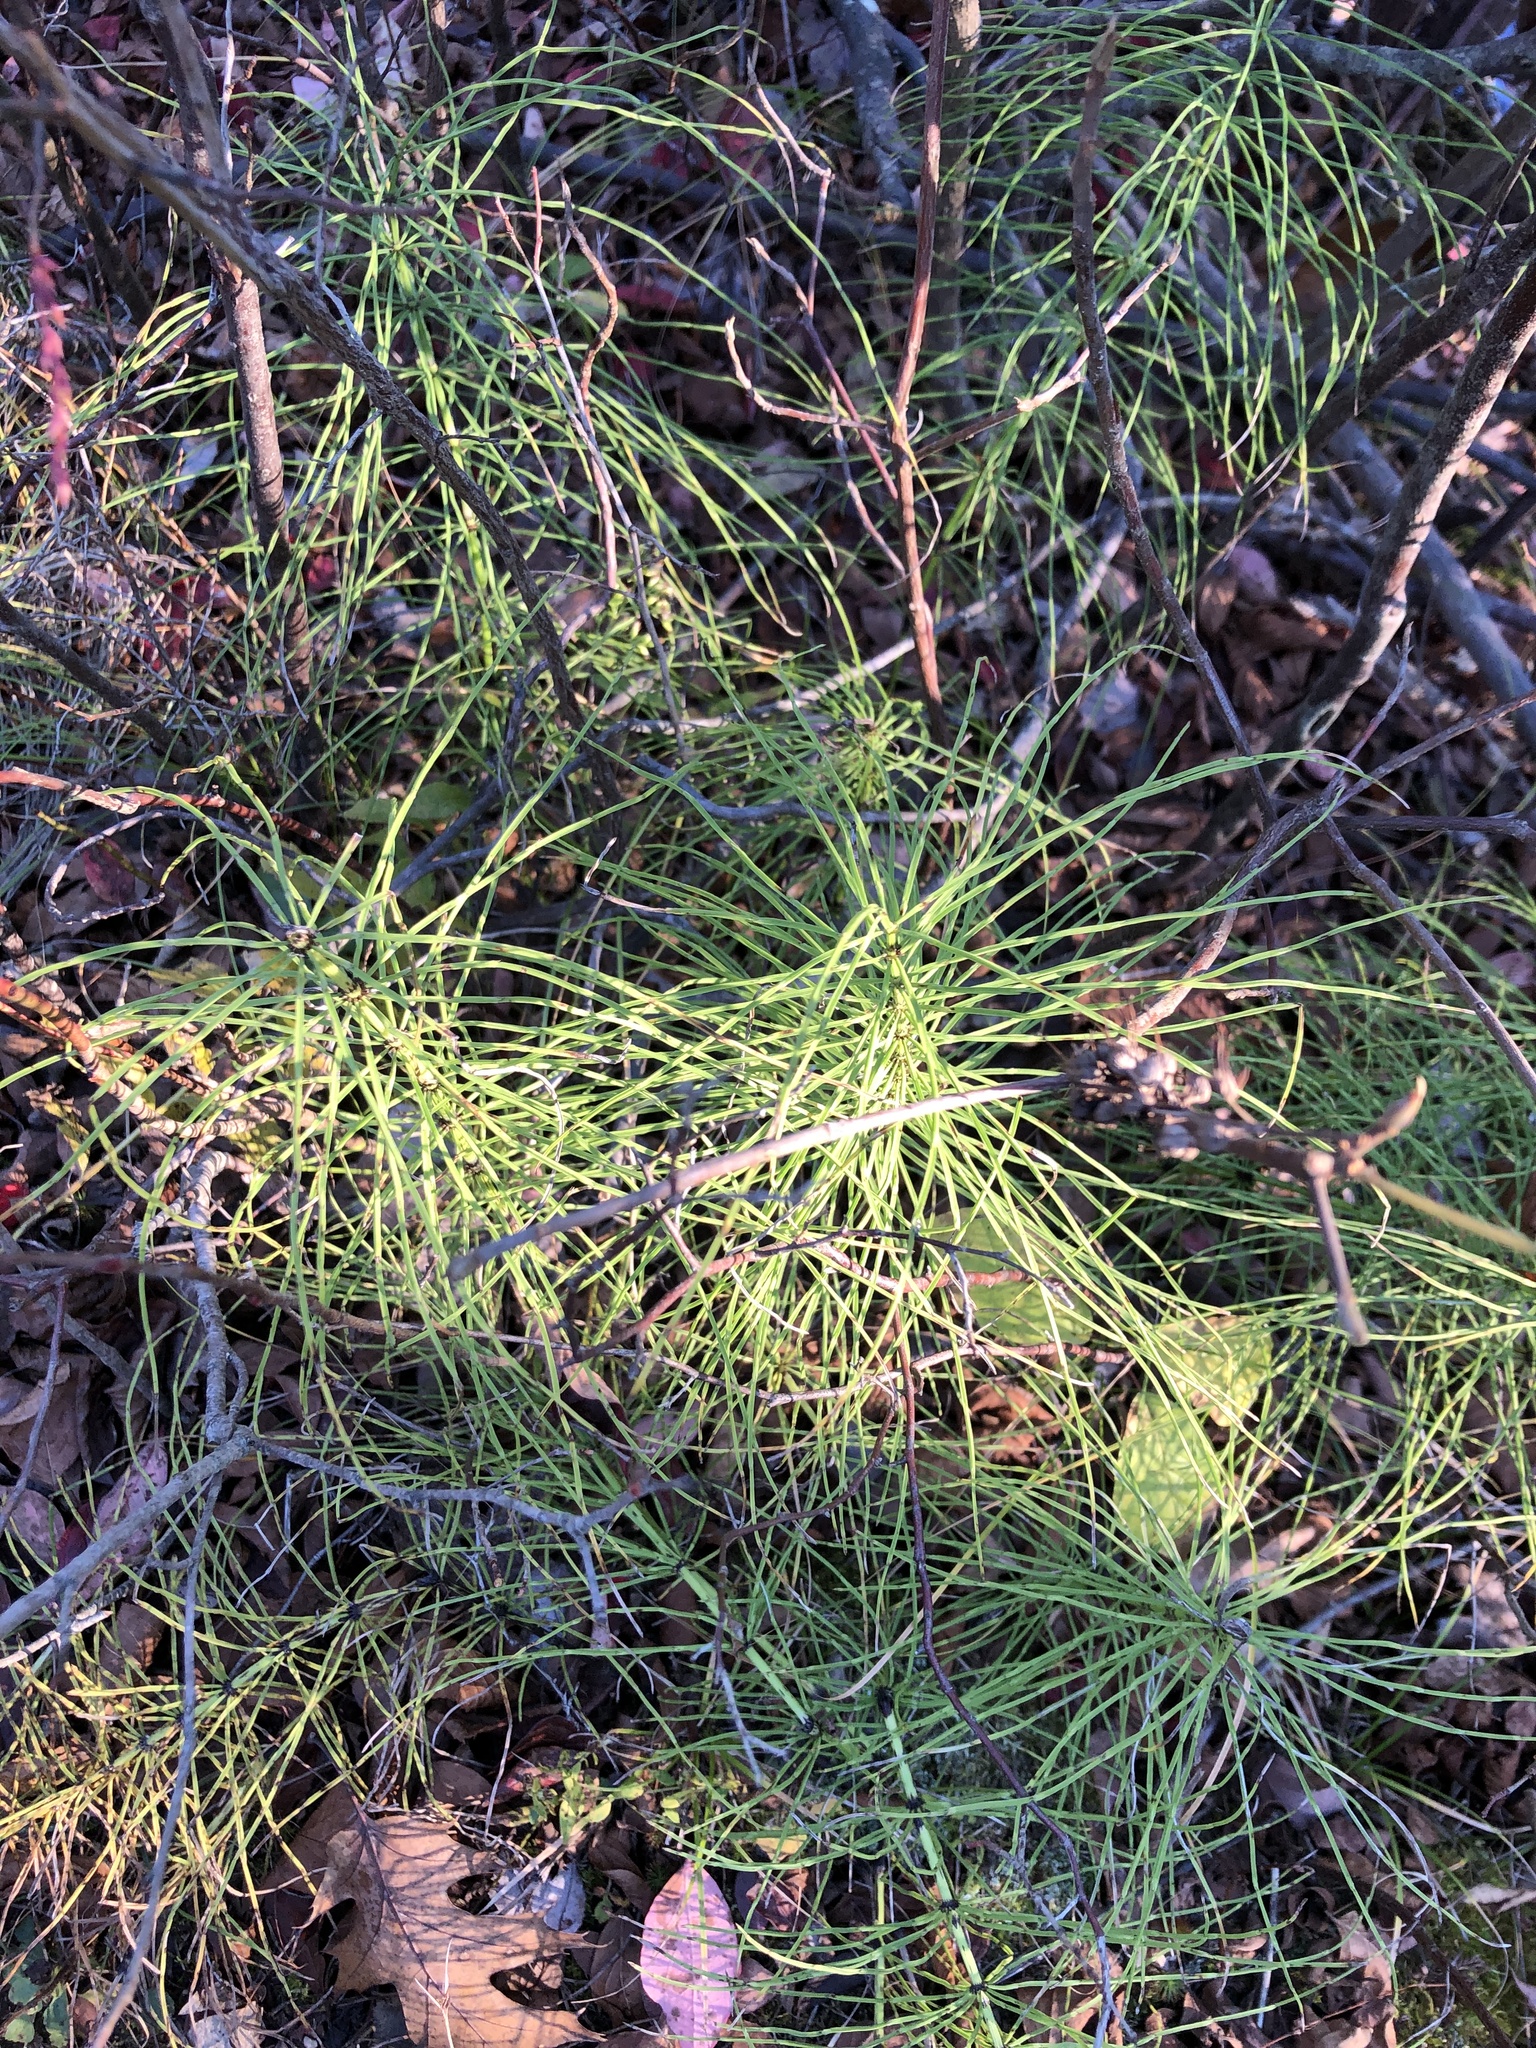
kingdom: Plantae
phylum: Tracheophyta
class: Polypodiopsida
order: Equisetales
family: Equisetaceae
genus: Equisetum
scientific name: Equisetum arvense
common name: Field horsetail
